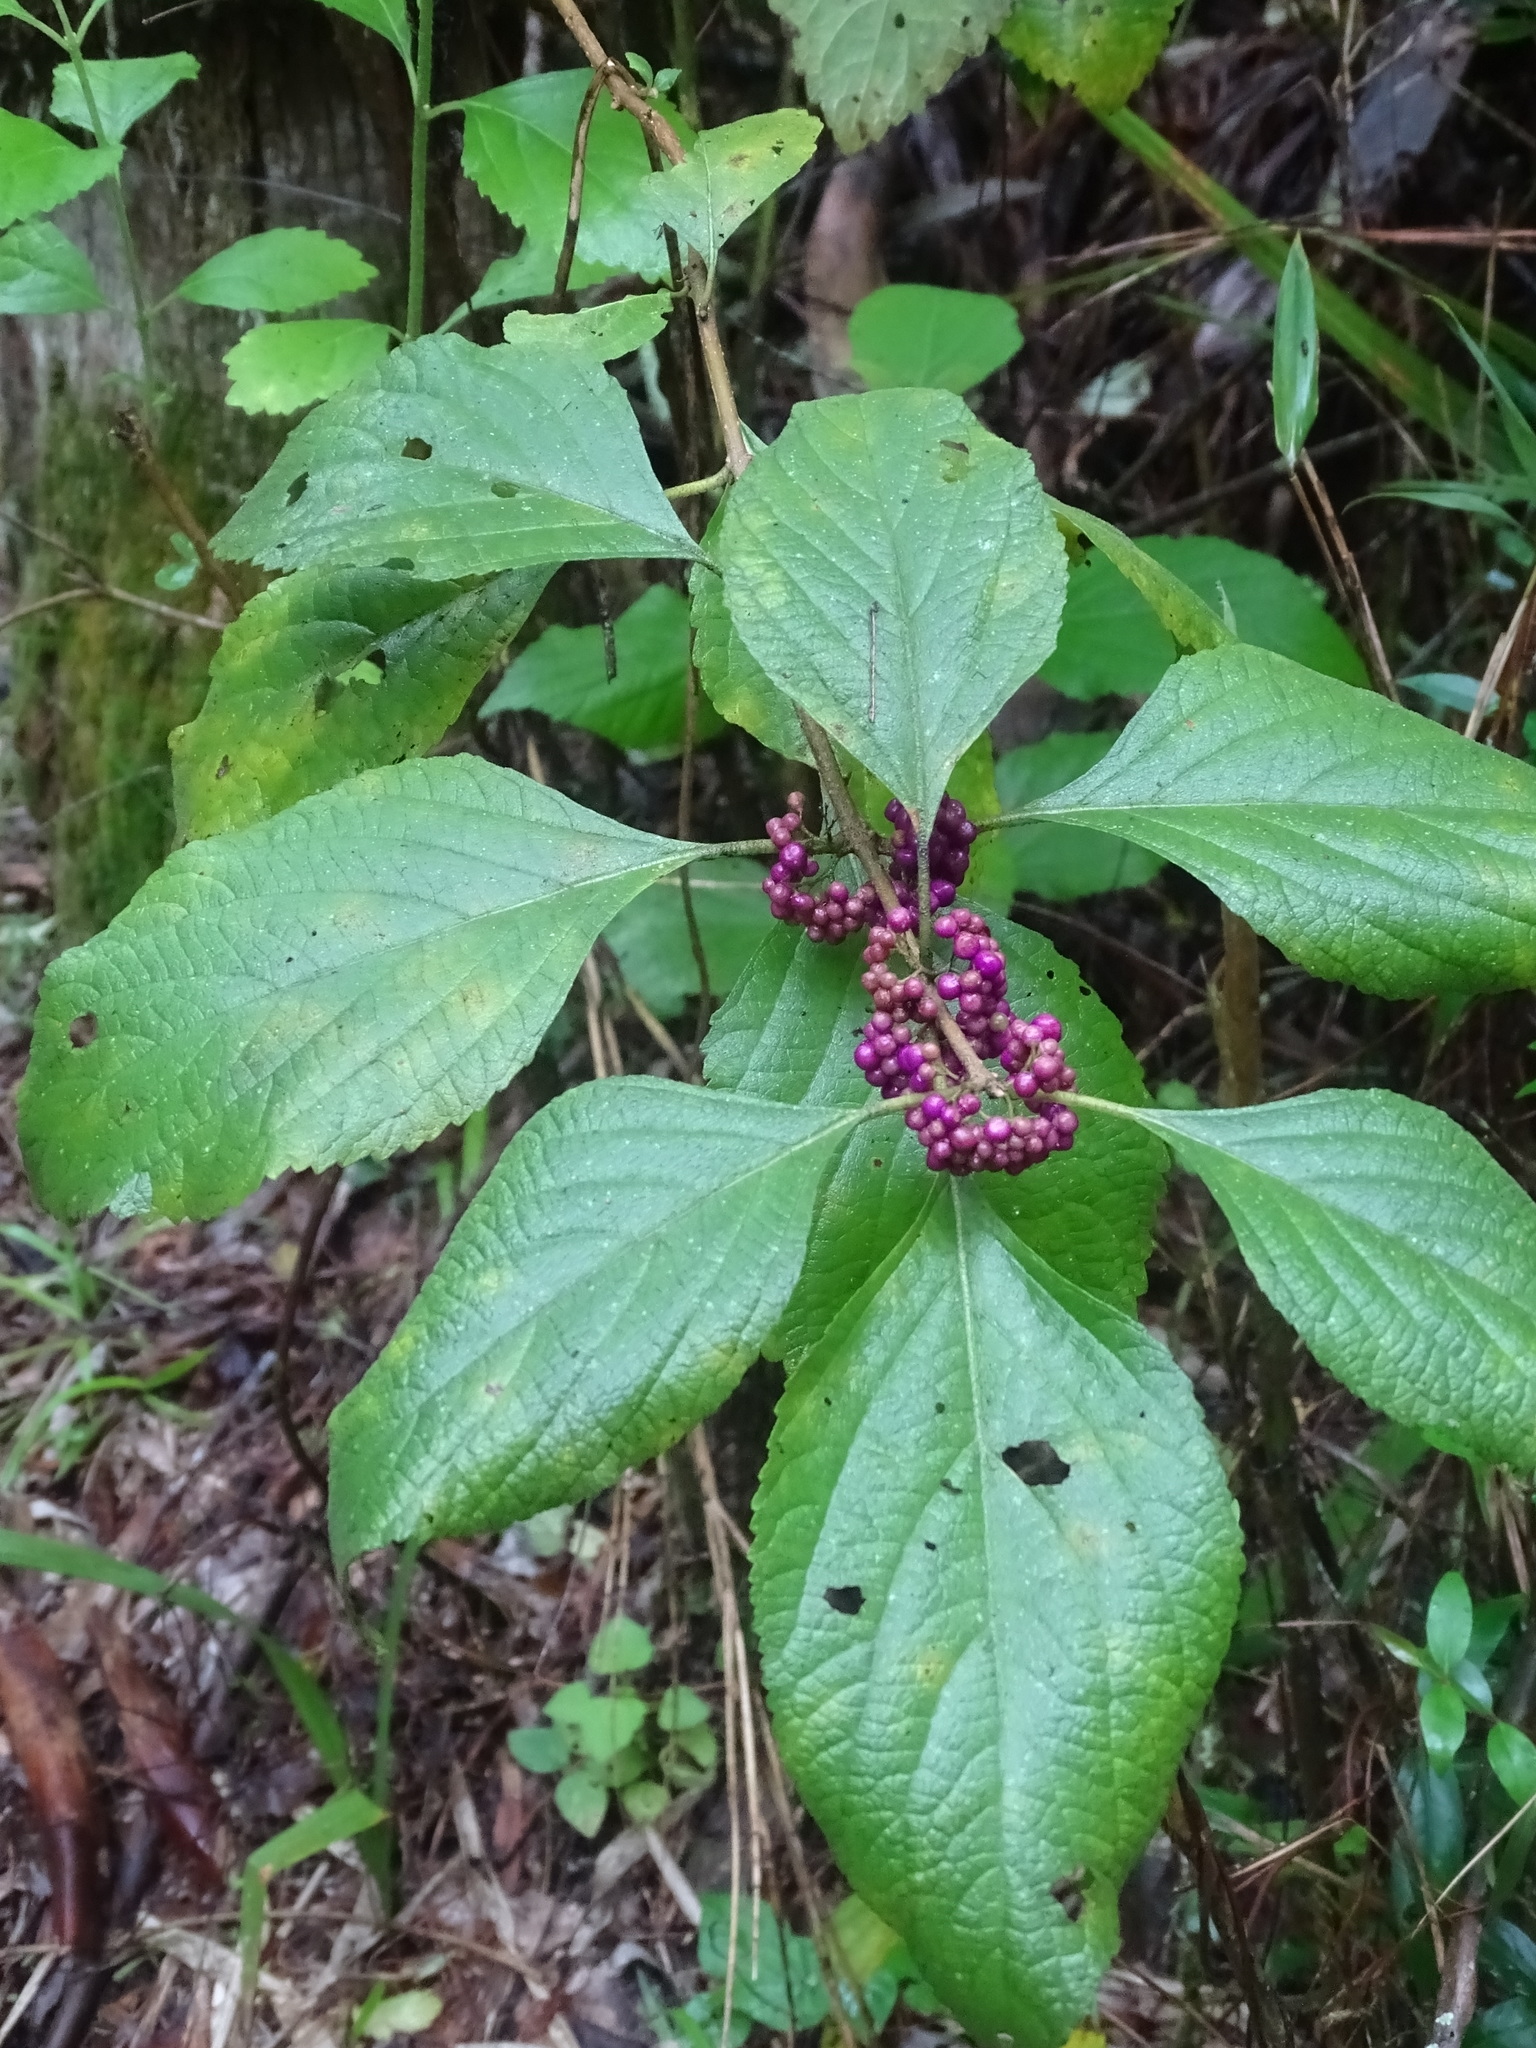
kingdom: Plantae
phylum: Tracheophyta
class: Magnoliopsida
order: Lamiales
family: Lamiaceae
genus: Callicarpa
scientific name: Callicarpa americana
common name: American beautyberry
